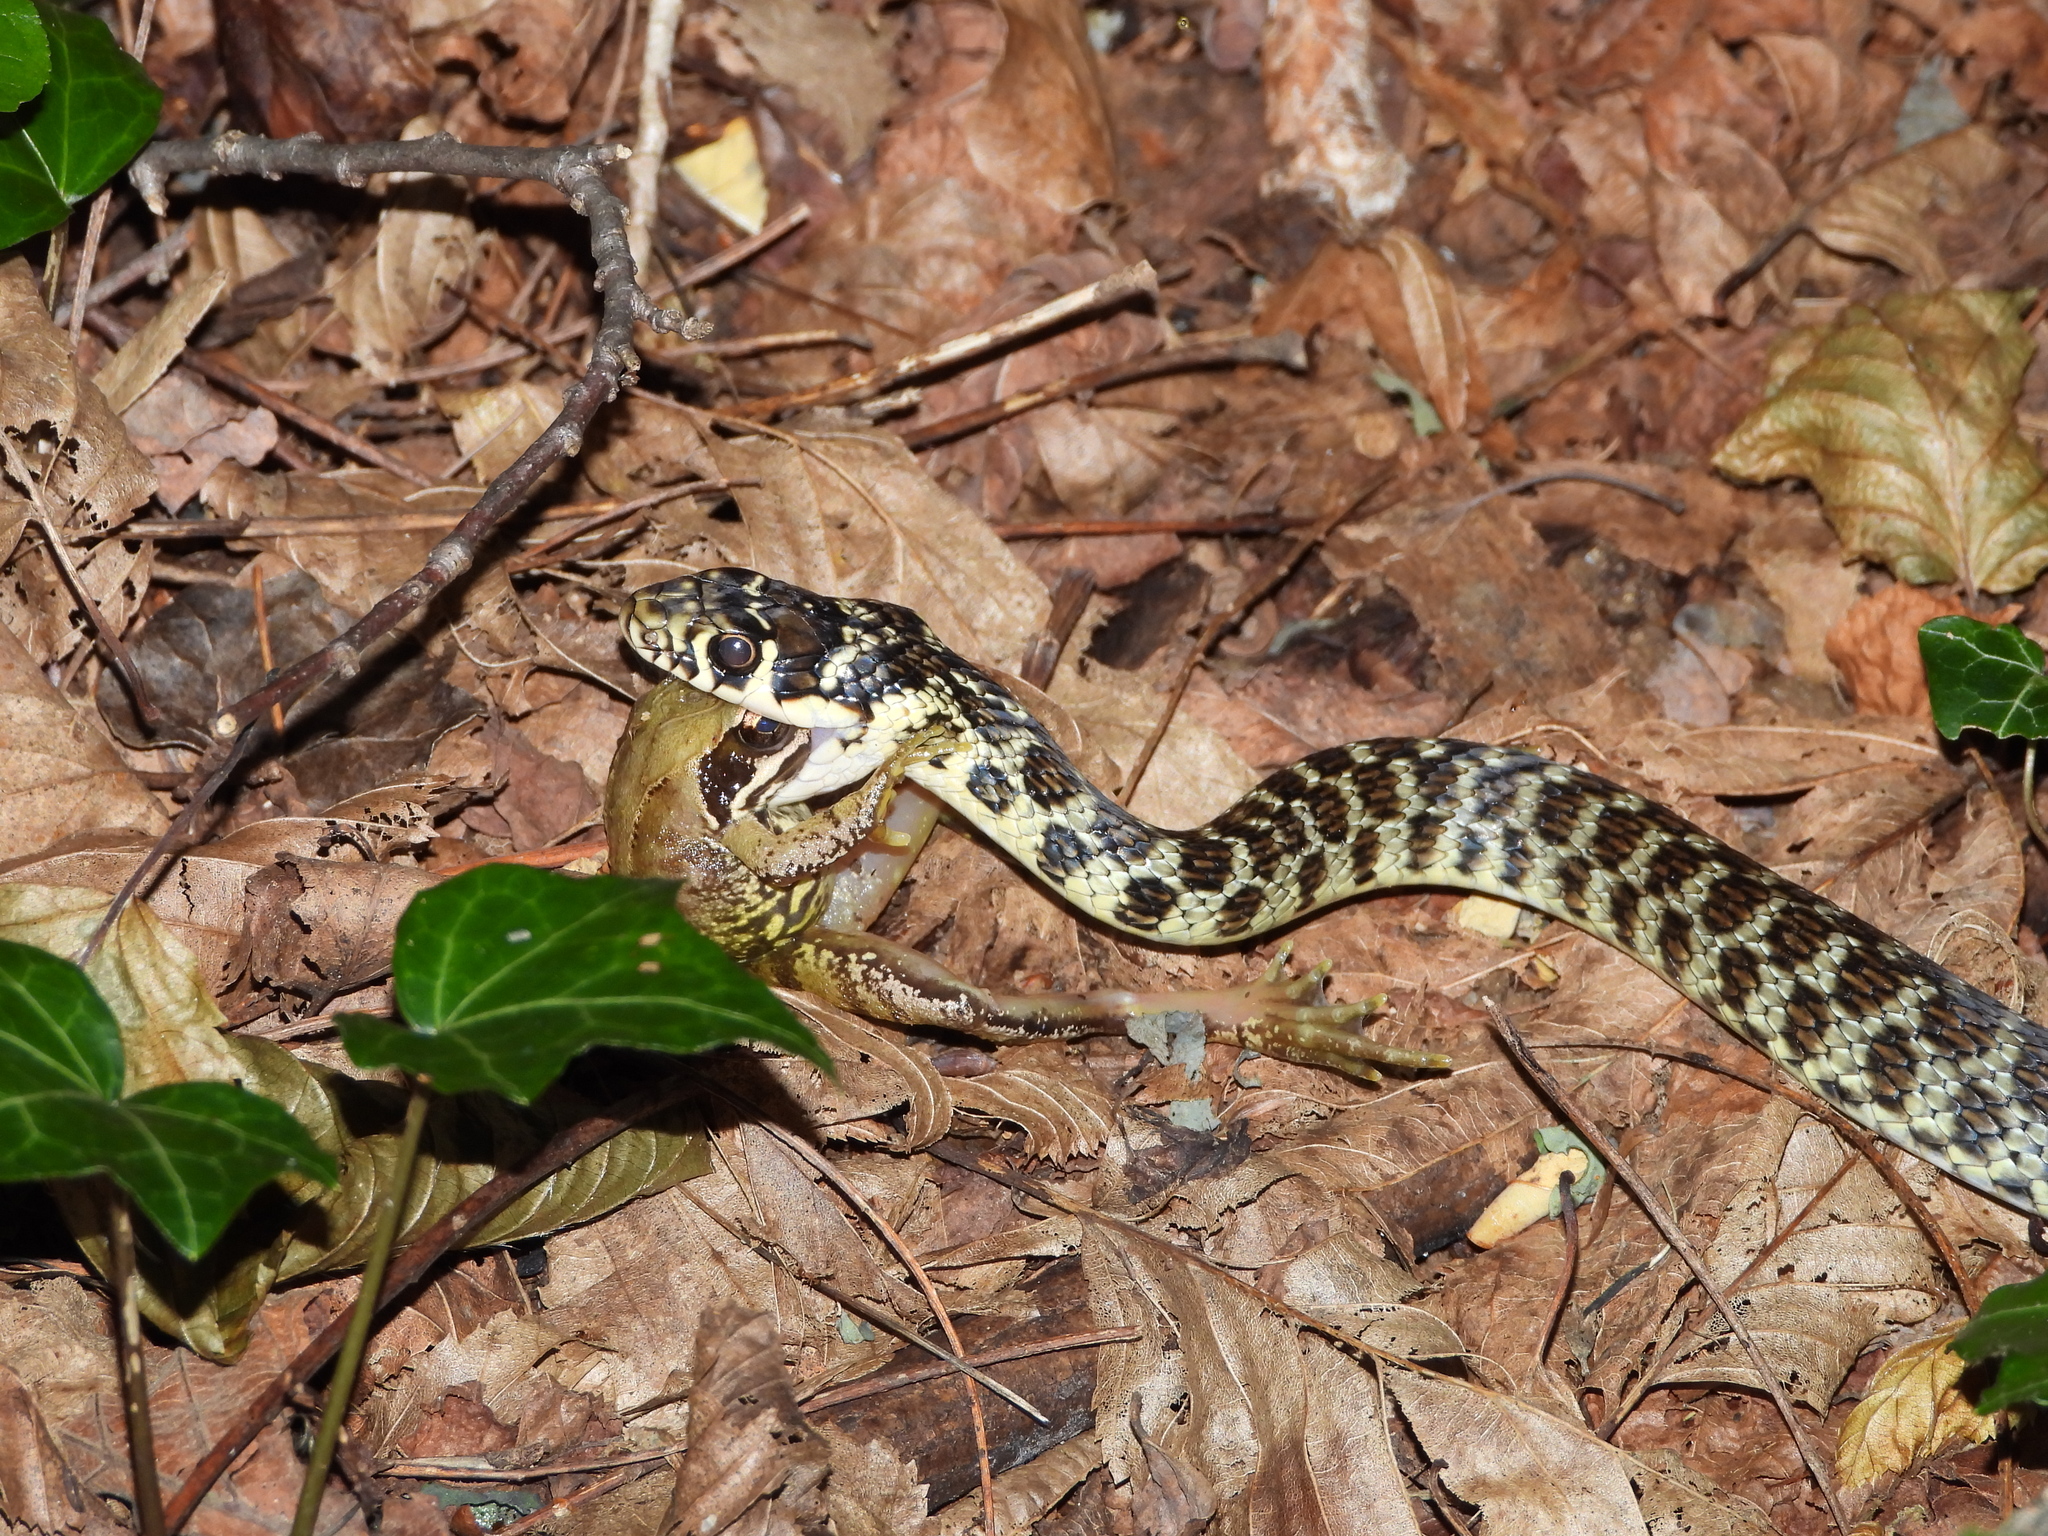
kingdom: Animalia
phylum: Chordata
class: Squamata
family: Colubridae
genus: Hierophis
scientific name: Hierophis viridiflavus
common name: Green whip snake
